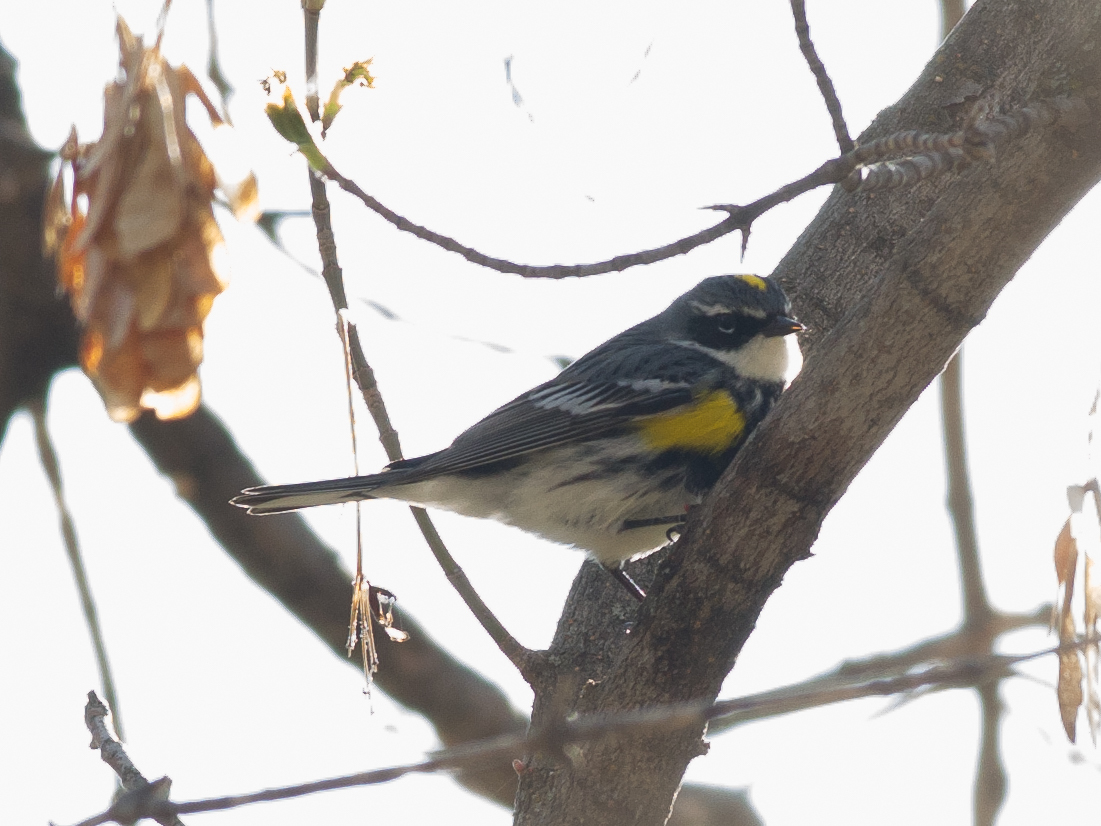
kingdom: Animalia
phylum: Chordata
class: Aves
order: Passeriformes
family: Parulidae
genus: Setophaga
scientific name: Setophaga coronata
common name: Myrtle warbler
